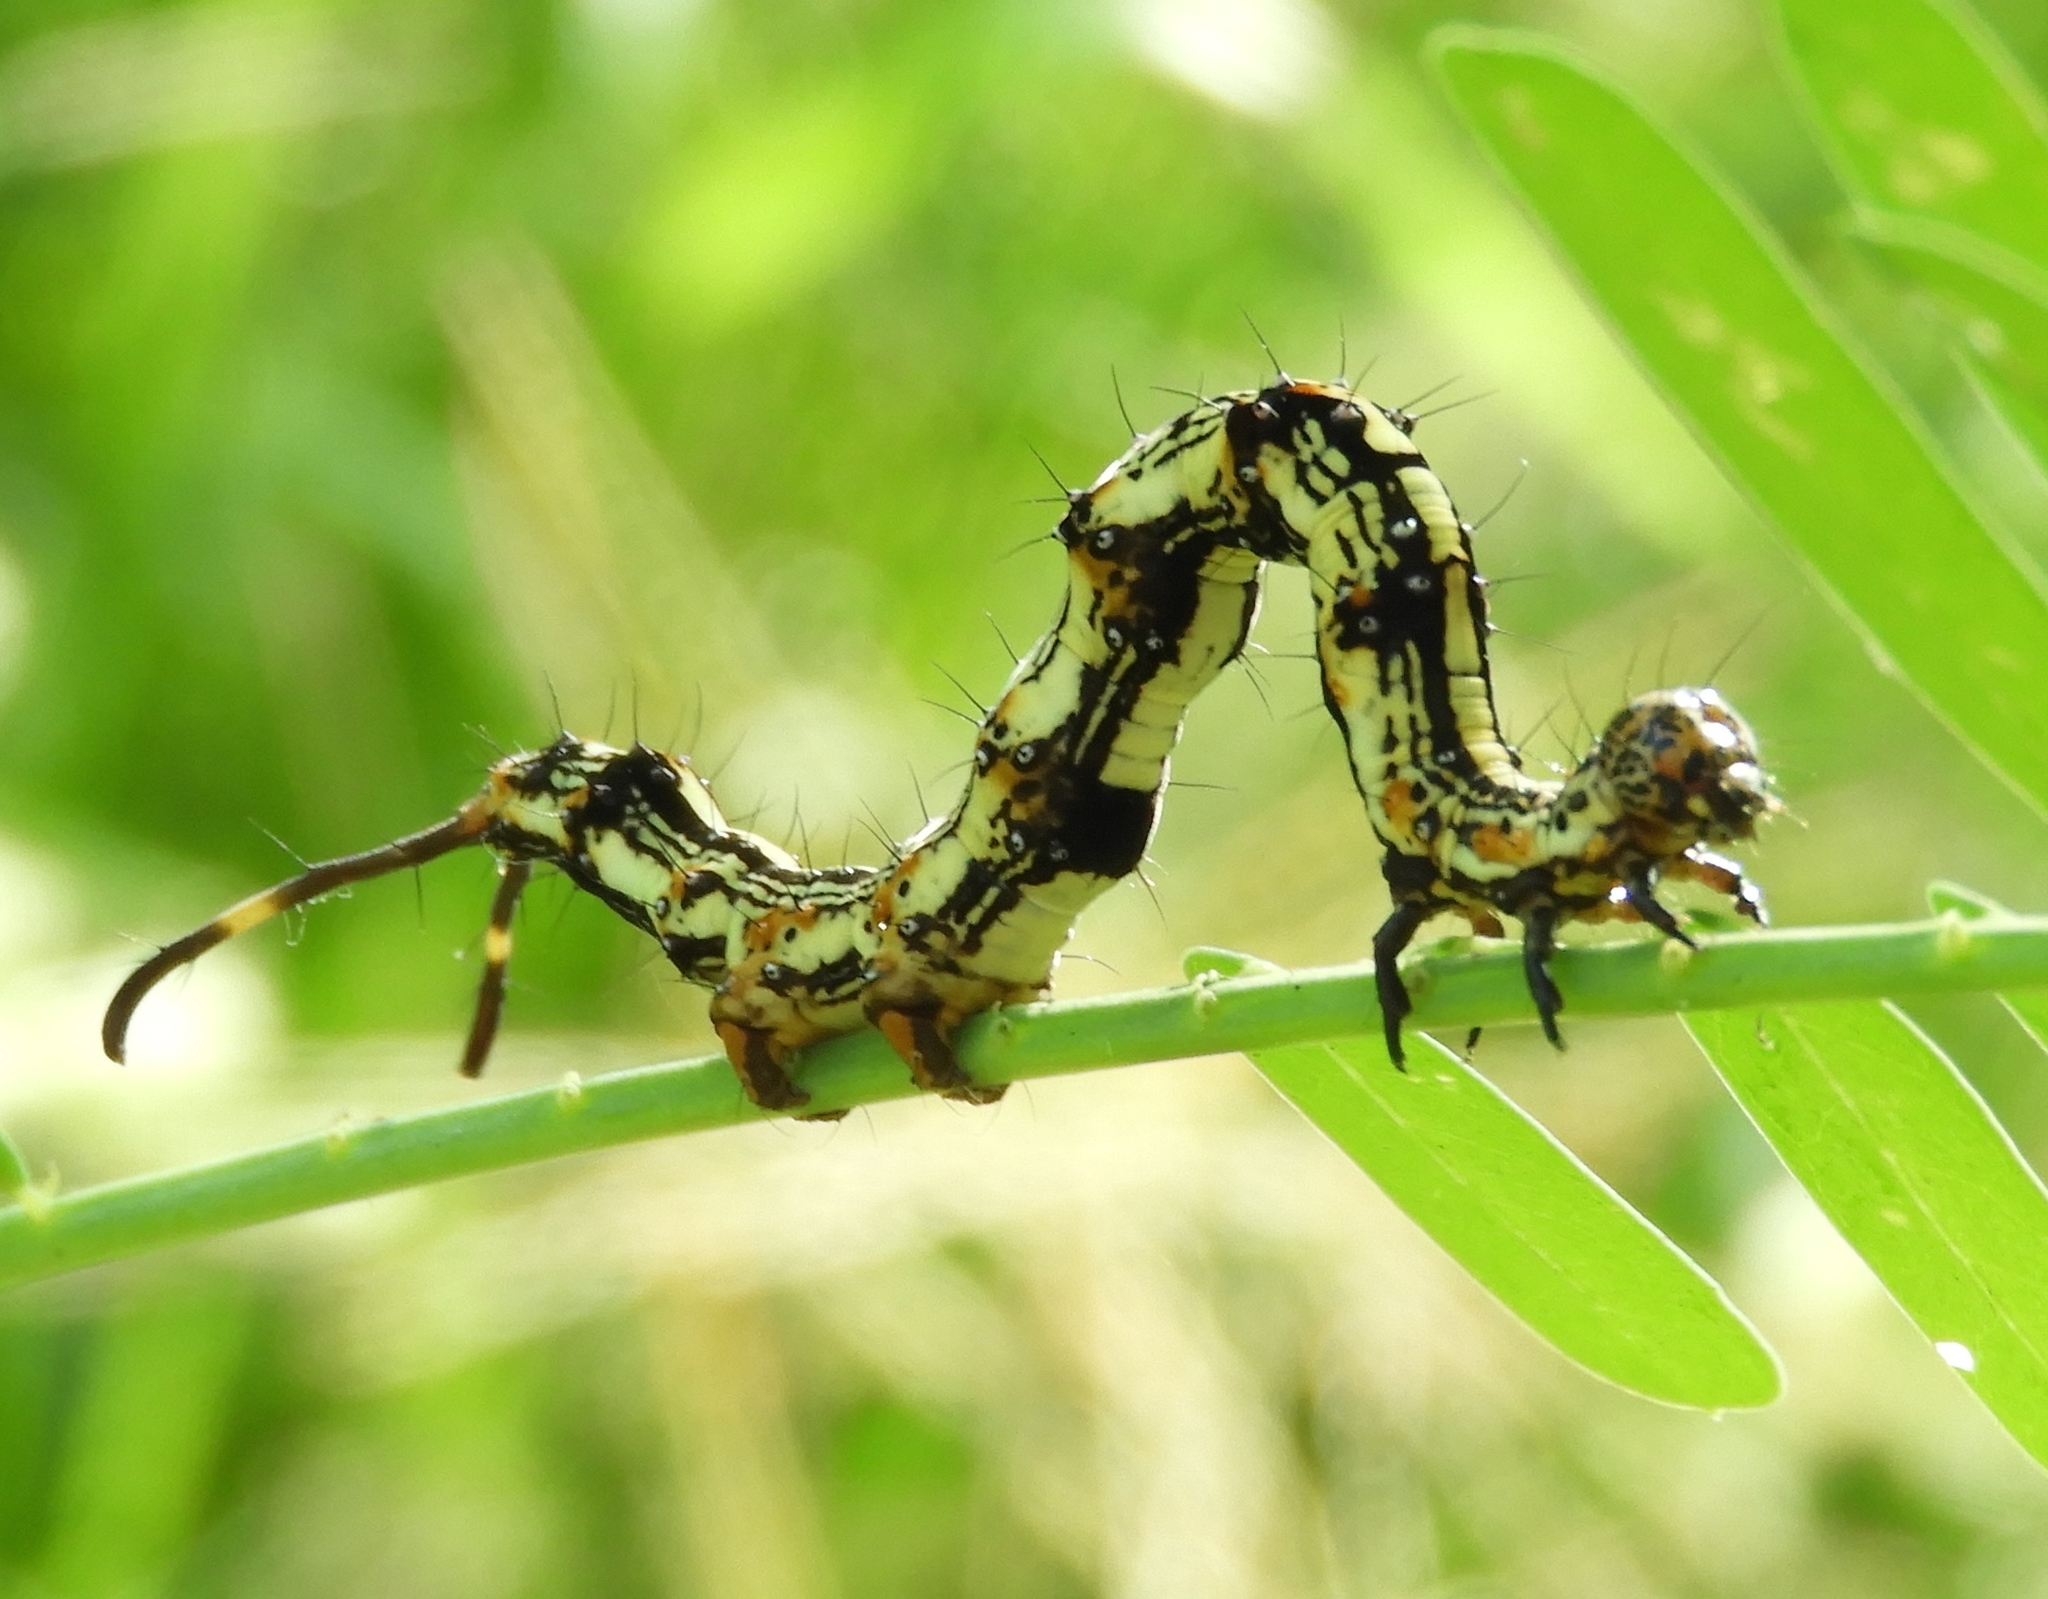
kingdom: Animalia
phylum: Arthropoda
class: Insecta
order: Lepidoptera
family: Erebidae
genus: Selenisa
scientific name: Selenisa
